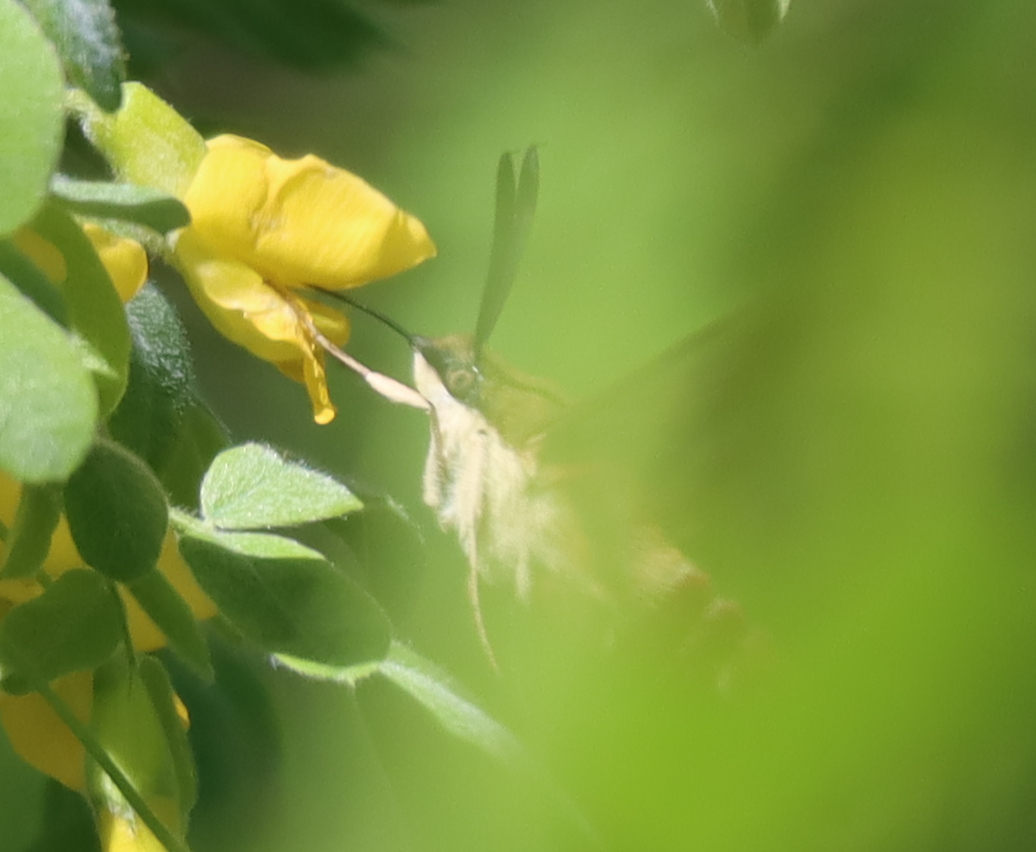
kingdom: Animalia
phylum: Arthropoda
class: Insecta
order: Lepidoptera
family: Sphingidae
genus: Hemaris
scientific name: Hemaris thysbe
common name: Common clear-wing
